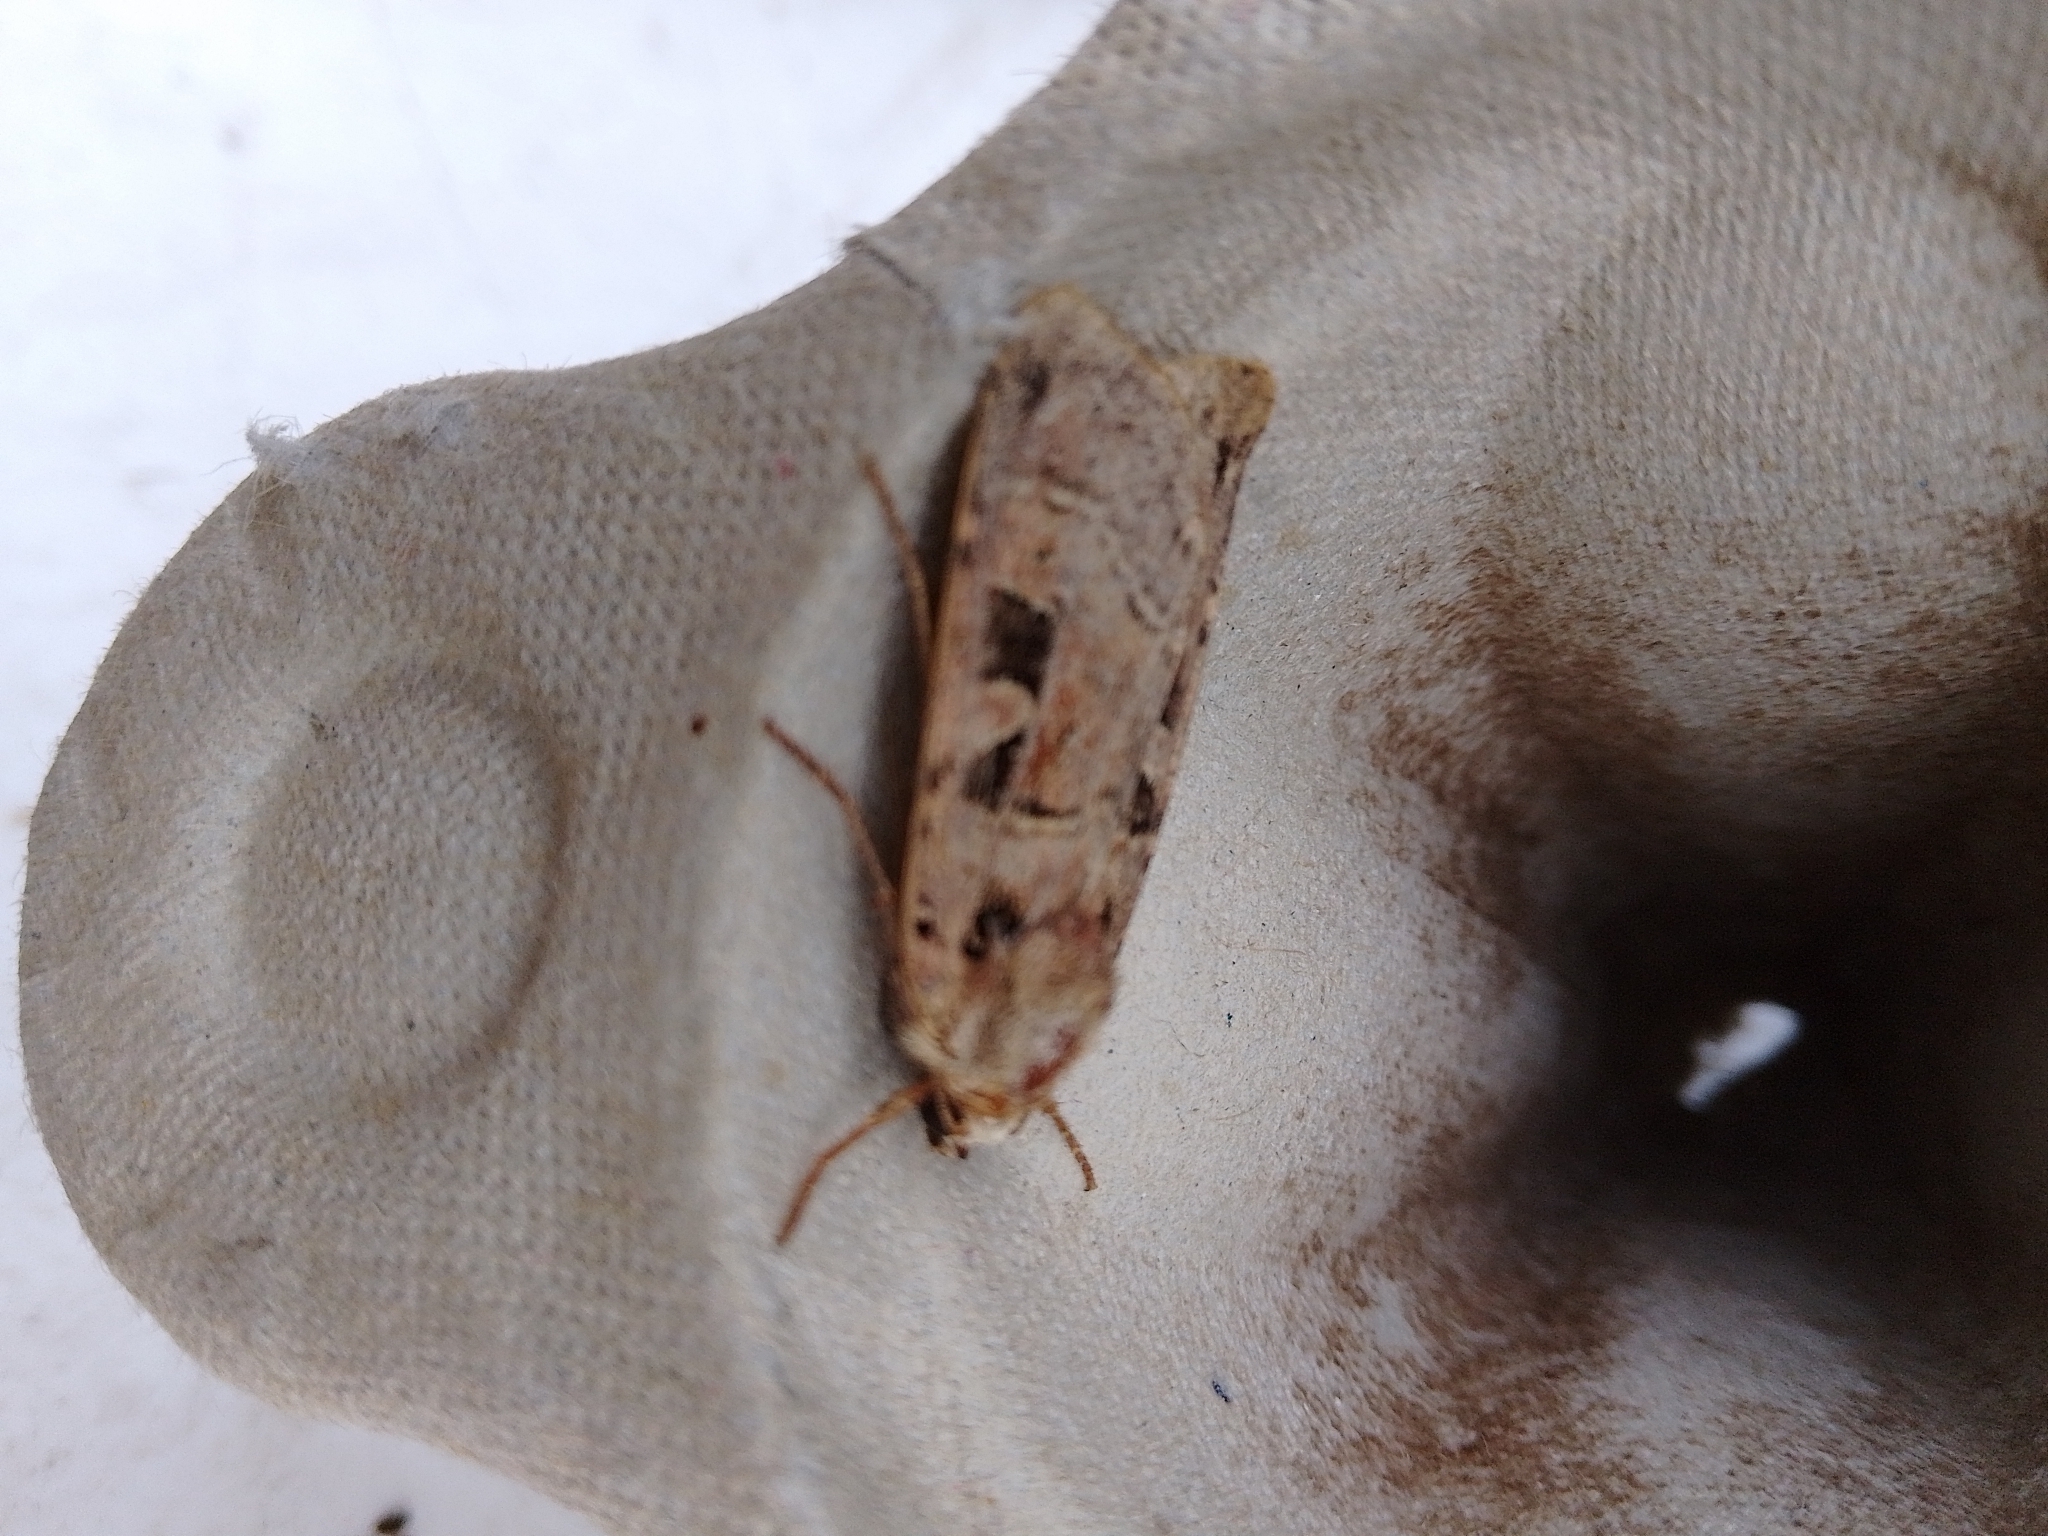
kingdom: Animalia
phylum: Arthropoda
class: Insecta
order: Lepidoptera
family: Noctuidae
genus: Xestia
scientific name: Xestia triangulum
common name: Double square-spot
